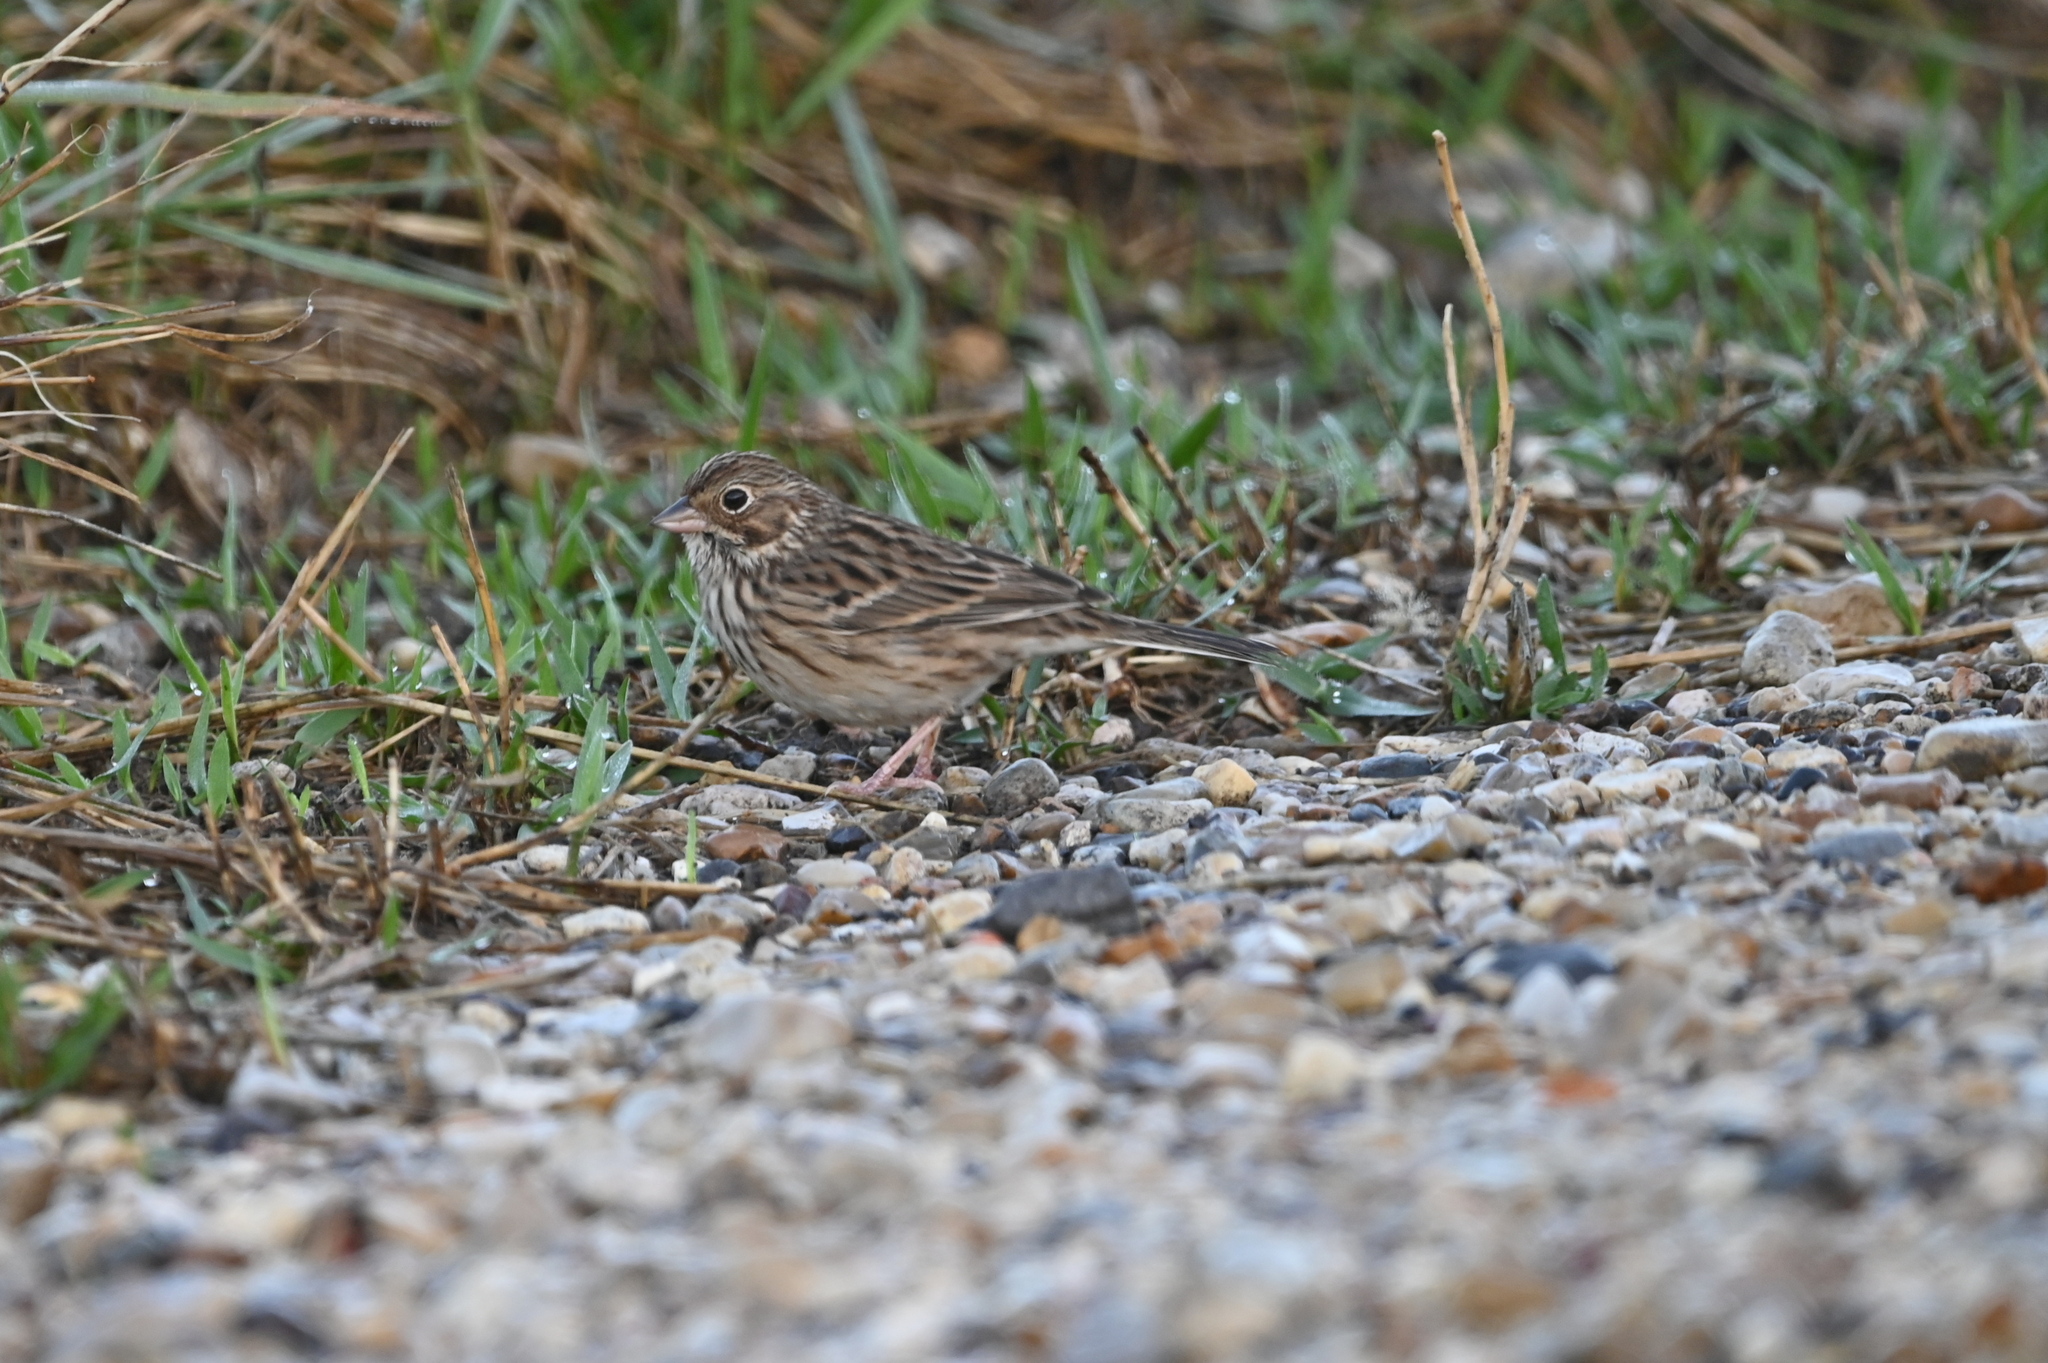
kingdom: Animalia
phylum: Chordata
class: Aves
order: Passeriformes
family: Passerellidae
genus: Pooecetes
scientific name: Pooecetes gramineus
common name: Vesper sparrow
